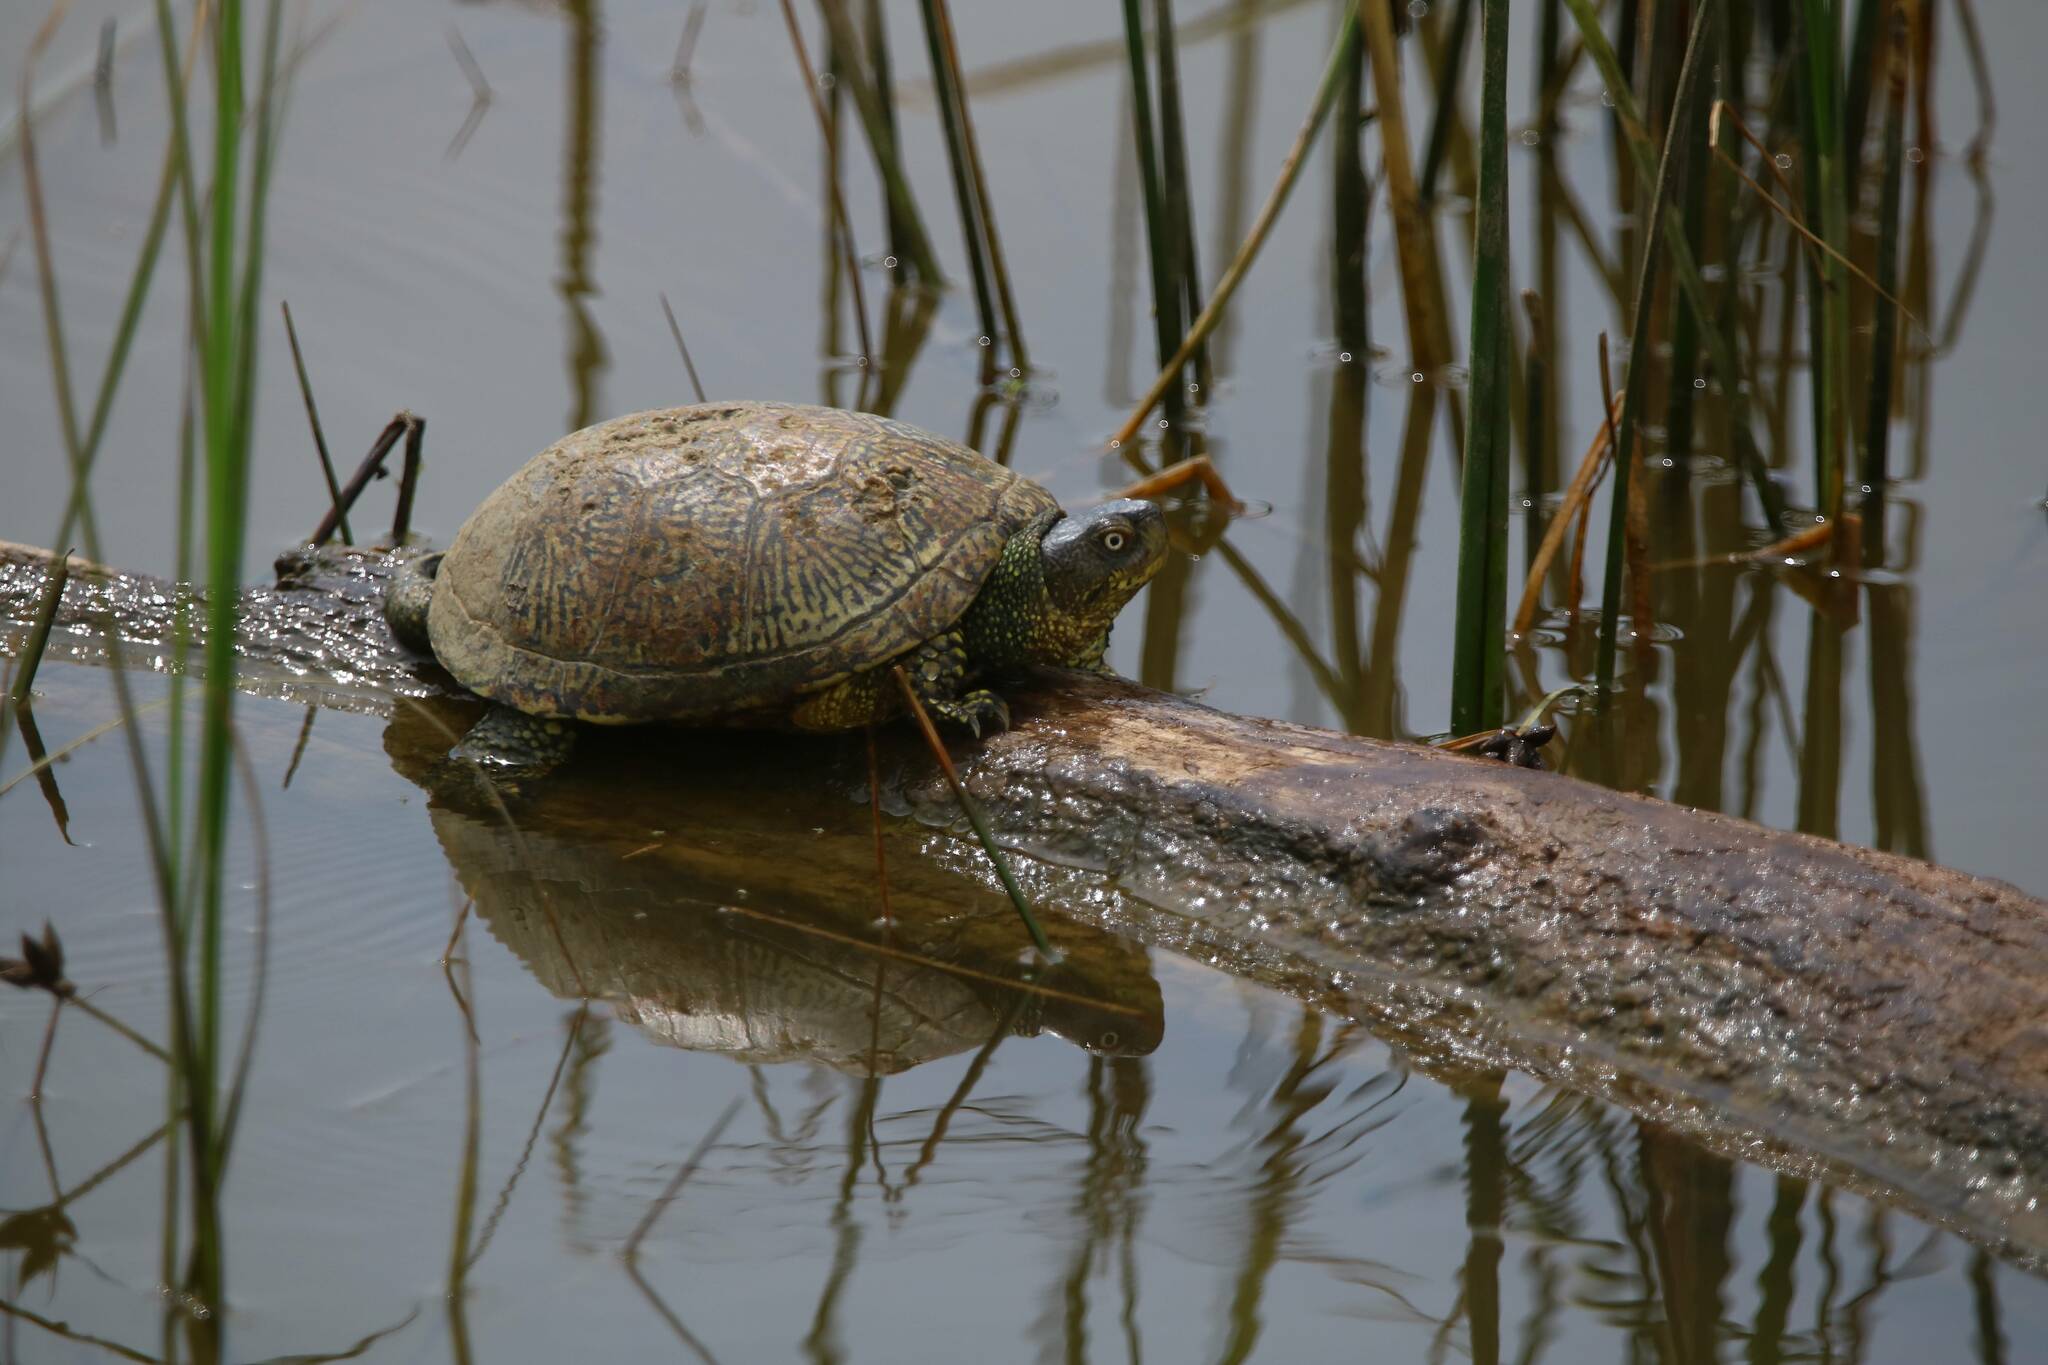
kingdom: Animalia
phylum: Chordata
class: Testudines
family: Emydidae
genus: Emys
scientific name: Emys orbicularis
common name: European pond turtle
